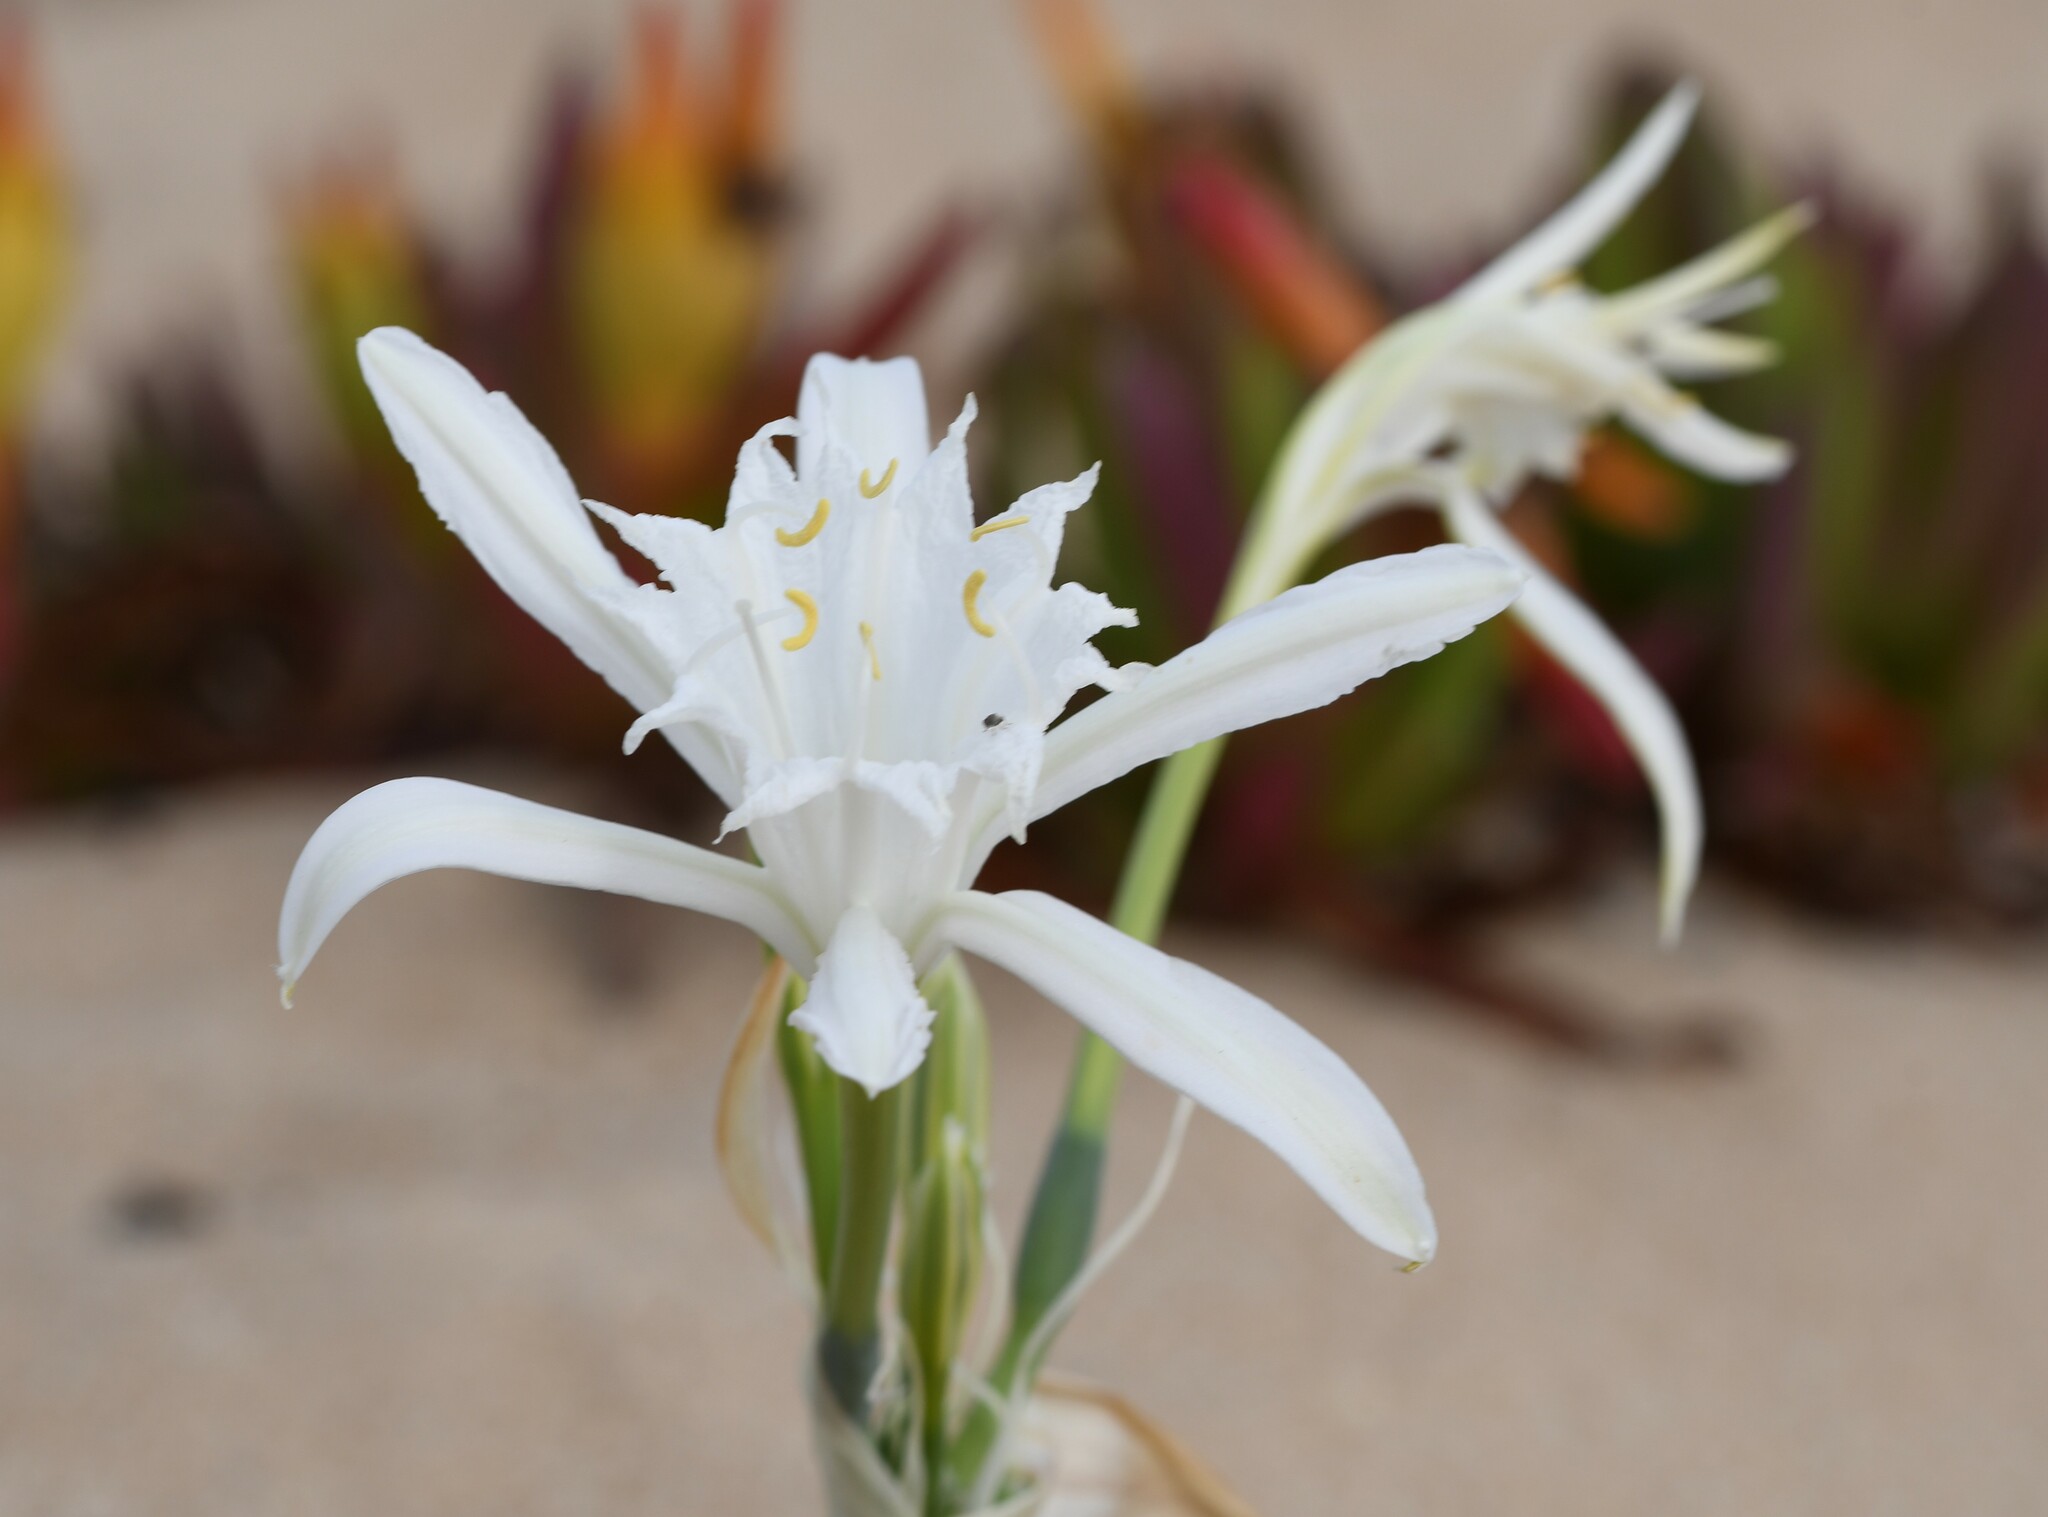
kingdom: Plantae
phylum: Tracheophyta
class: Liliopsida
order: Asparagales
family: Amaryllidaceae
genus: Pancratium
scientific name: Pancratium maritimum
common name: Sea-daffodil
